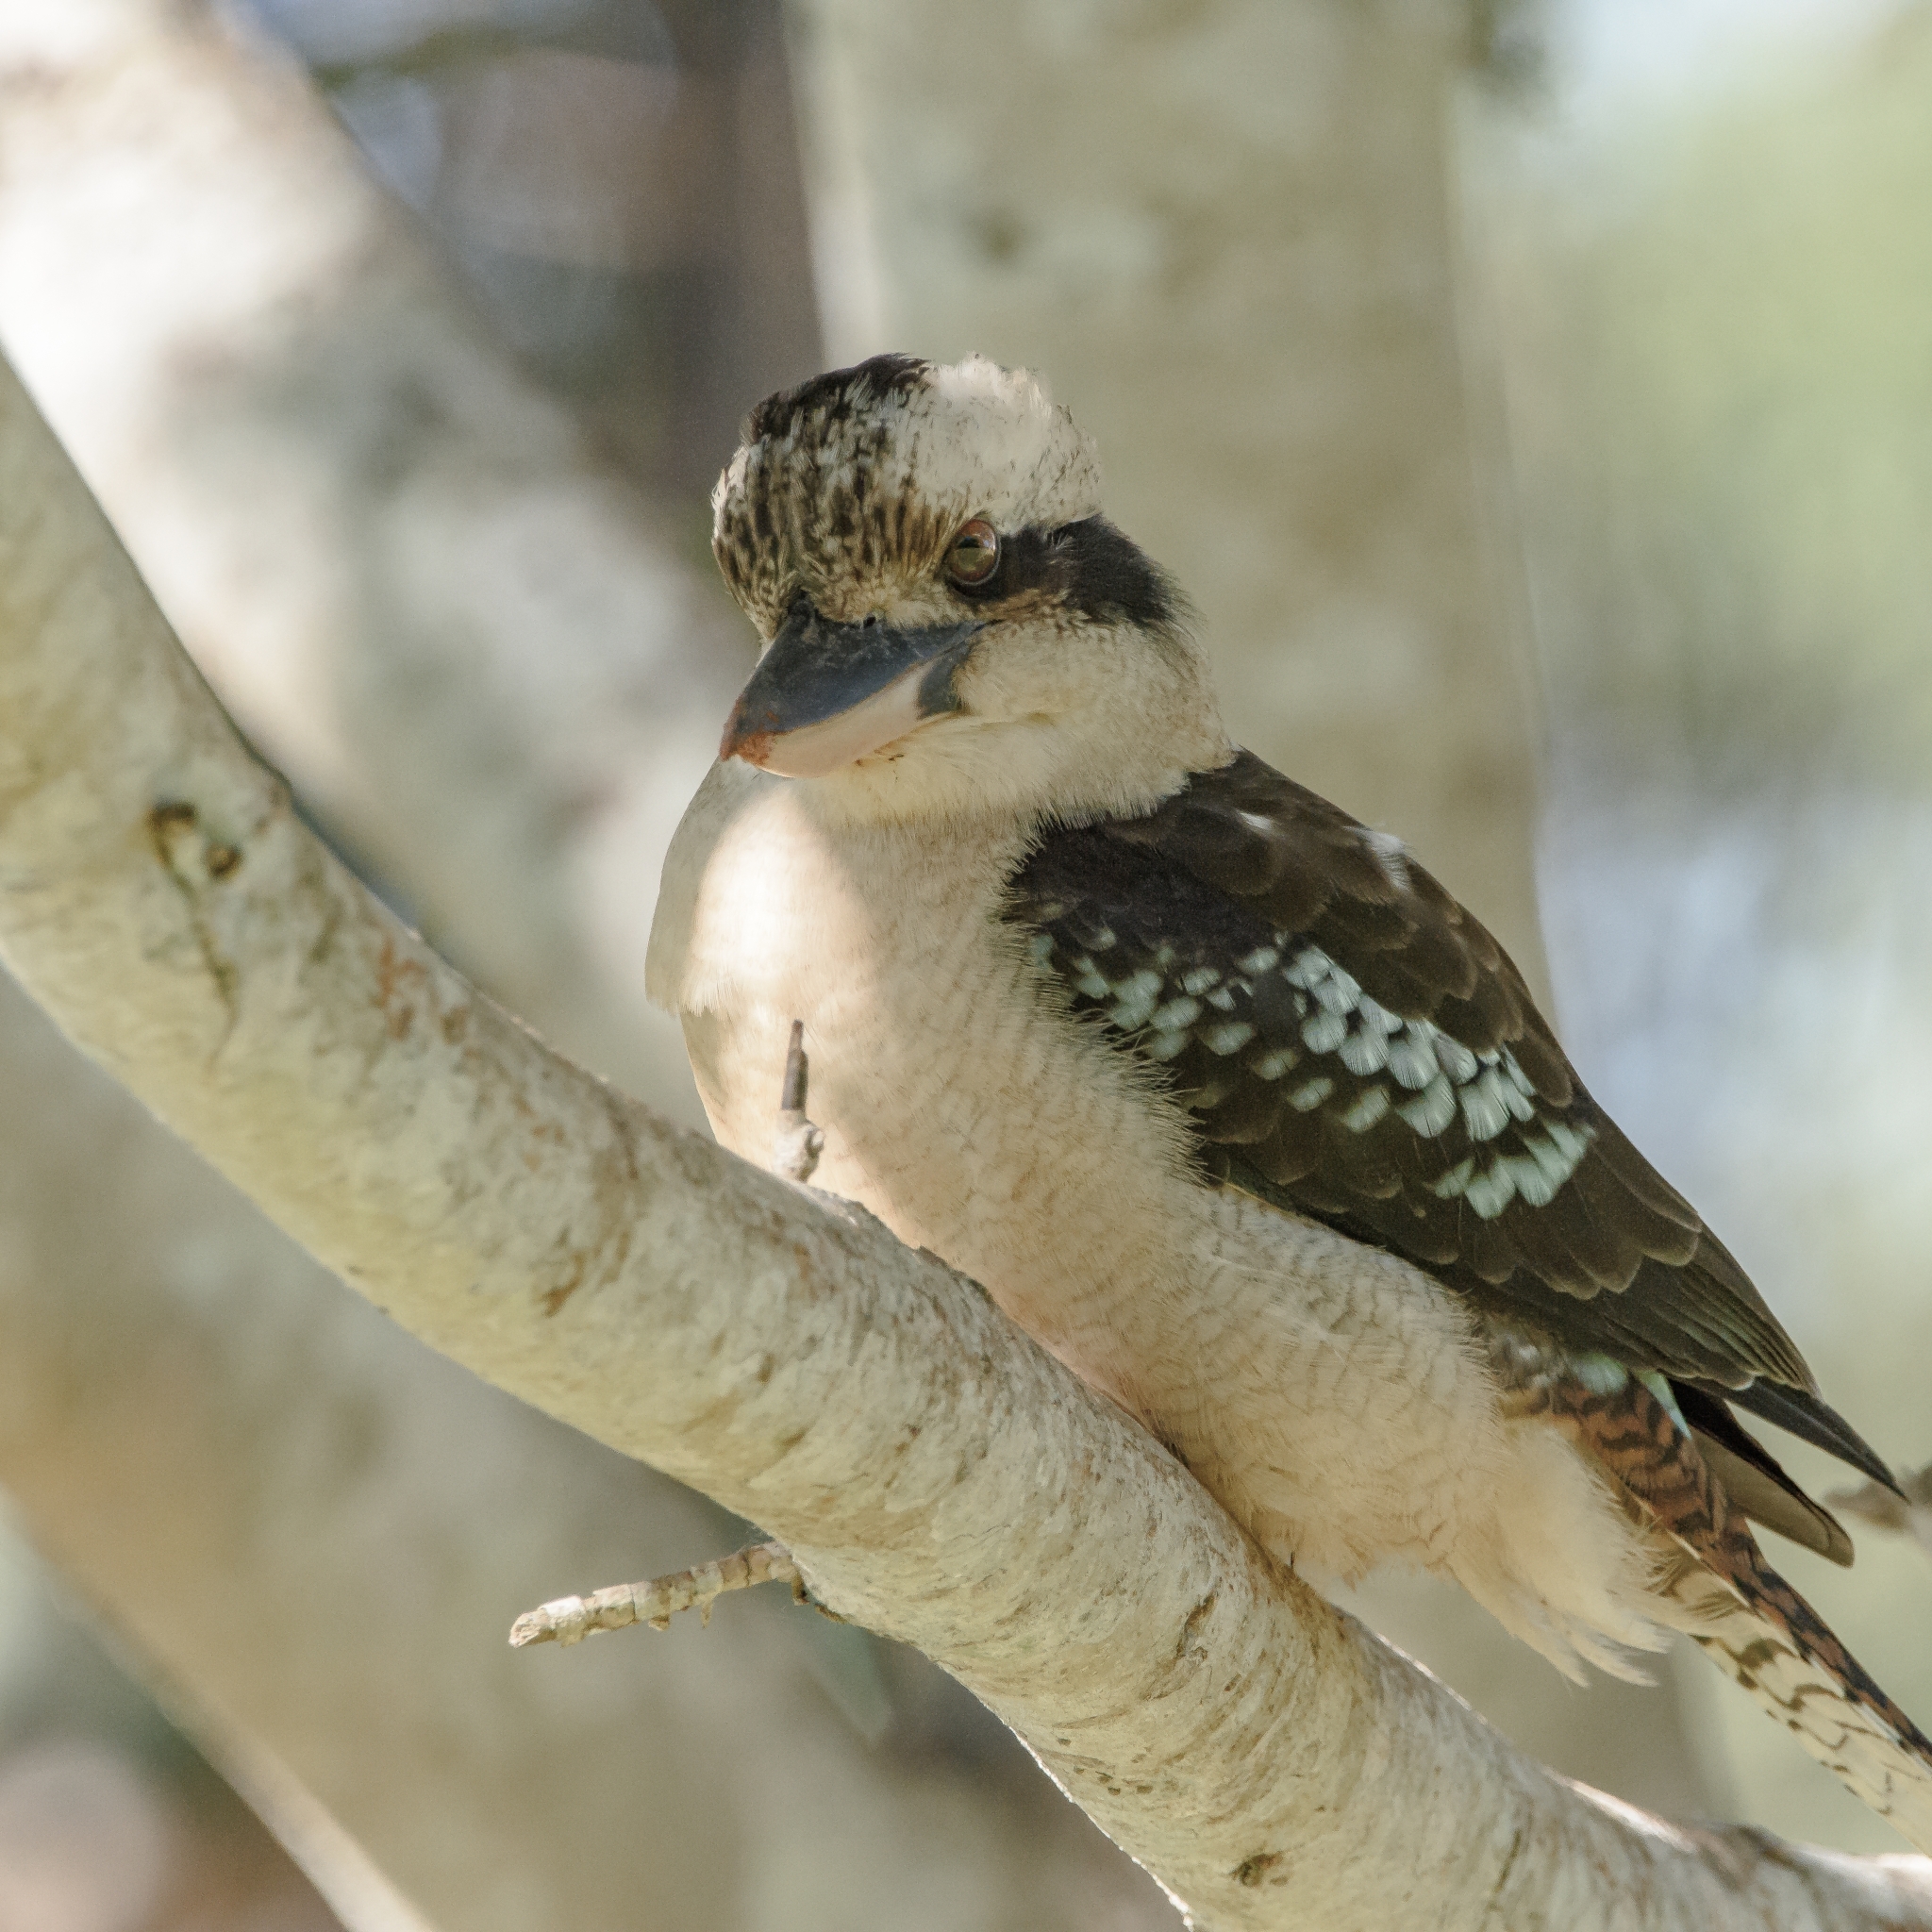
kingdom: Animalia
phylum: Chordata
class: Aves
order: Coraciiformes
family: Alcedinidae
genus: Dacelo
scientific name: Dacelo novaeguineae
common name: Laughing kookaburra
